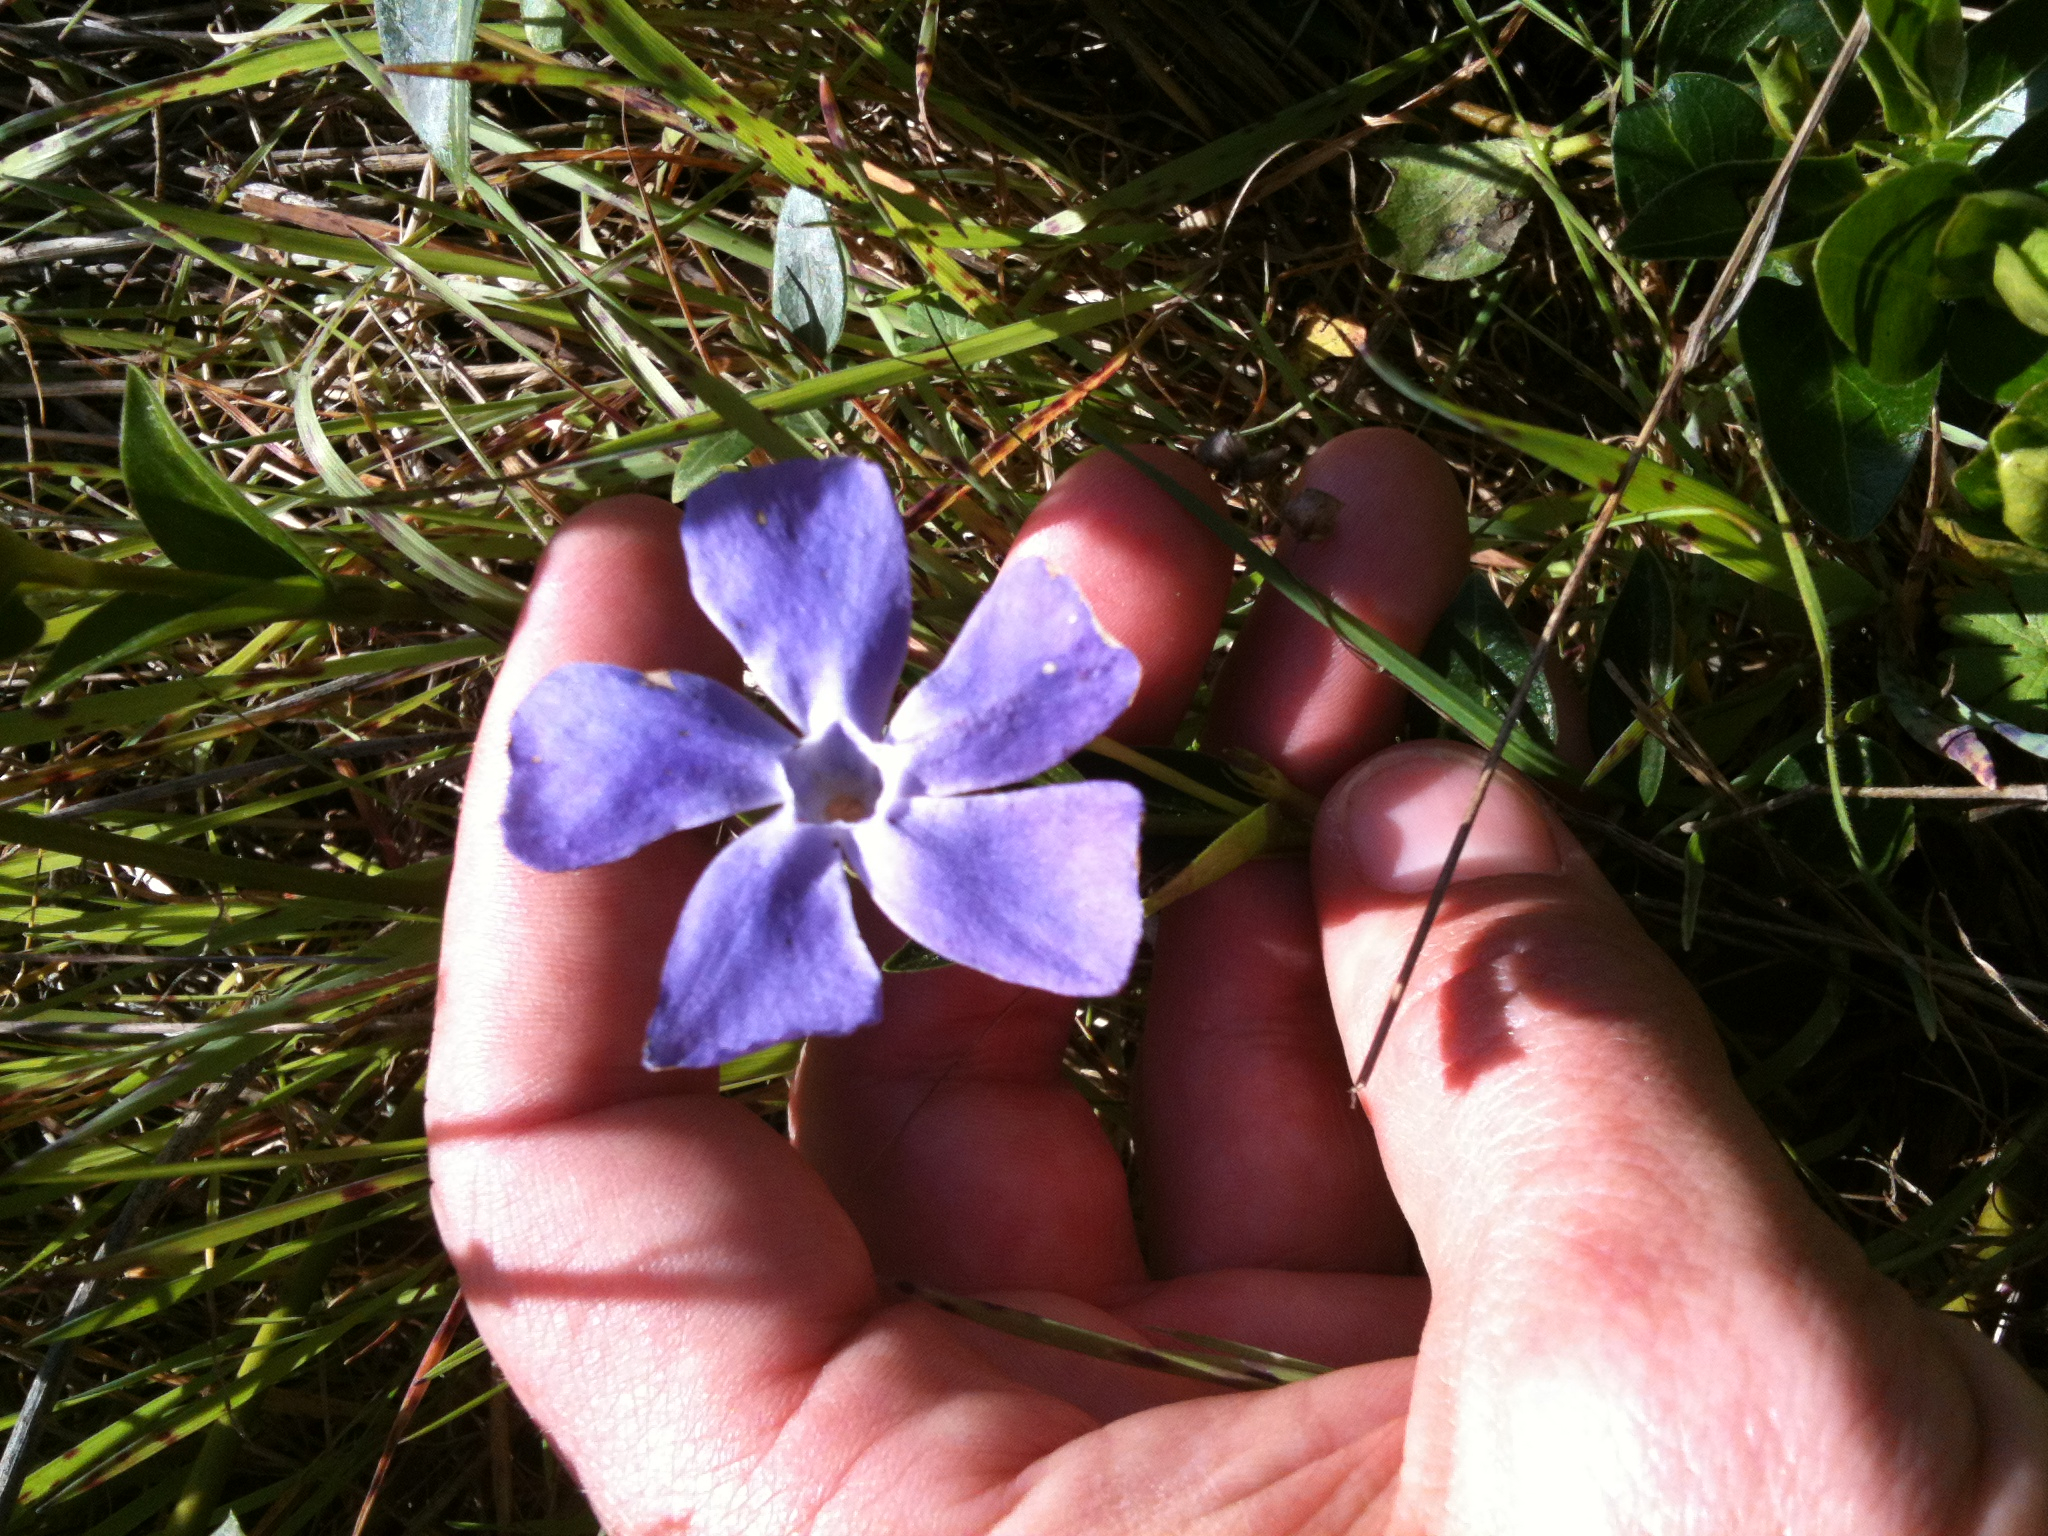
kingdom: Plantae
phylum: Tracheophyta
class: Magnoliopsida
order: Gentianales
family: Apocynaceae
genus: Vinca
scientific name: Vinca major
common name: Greater periwinkle
